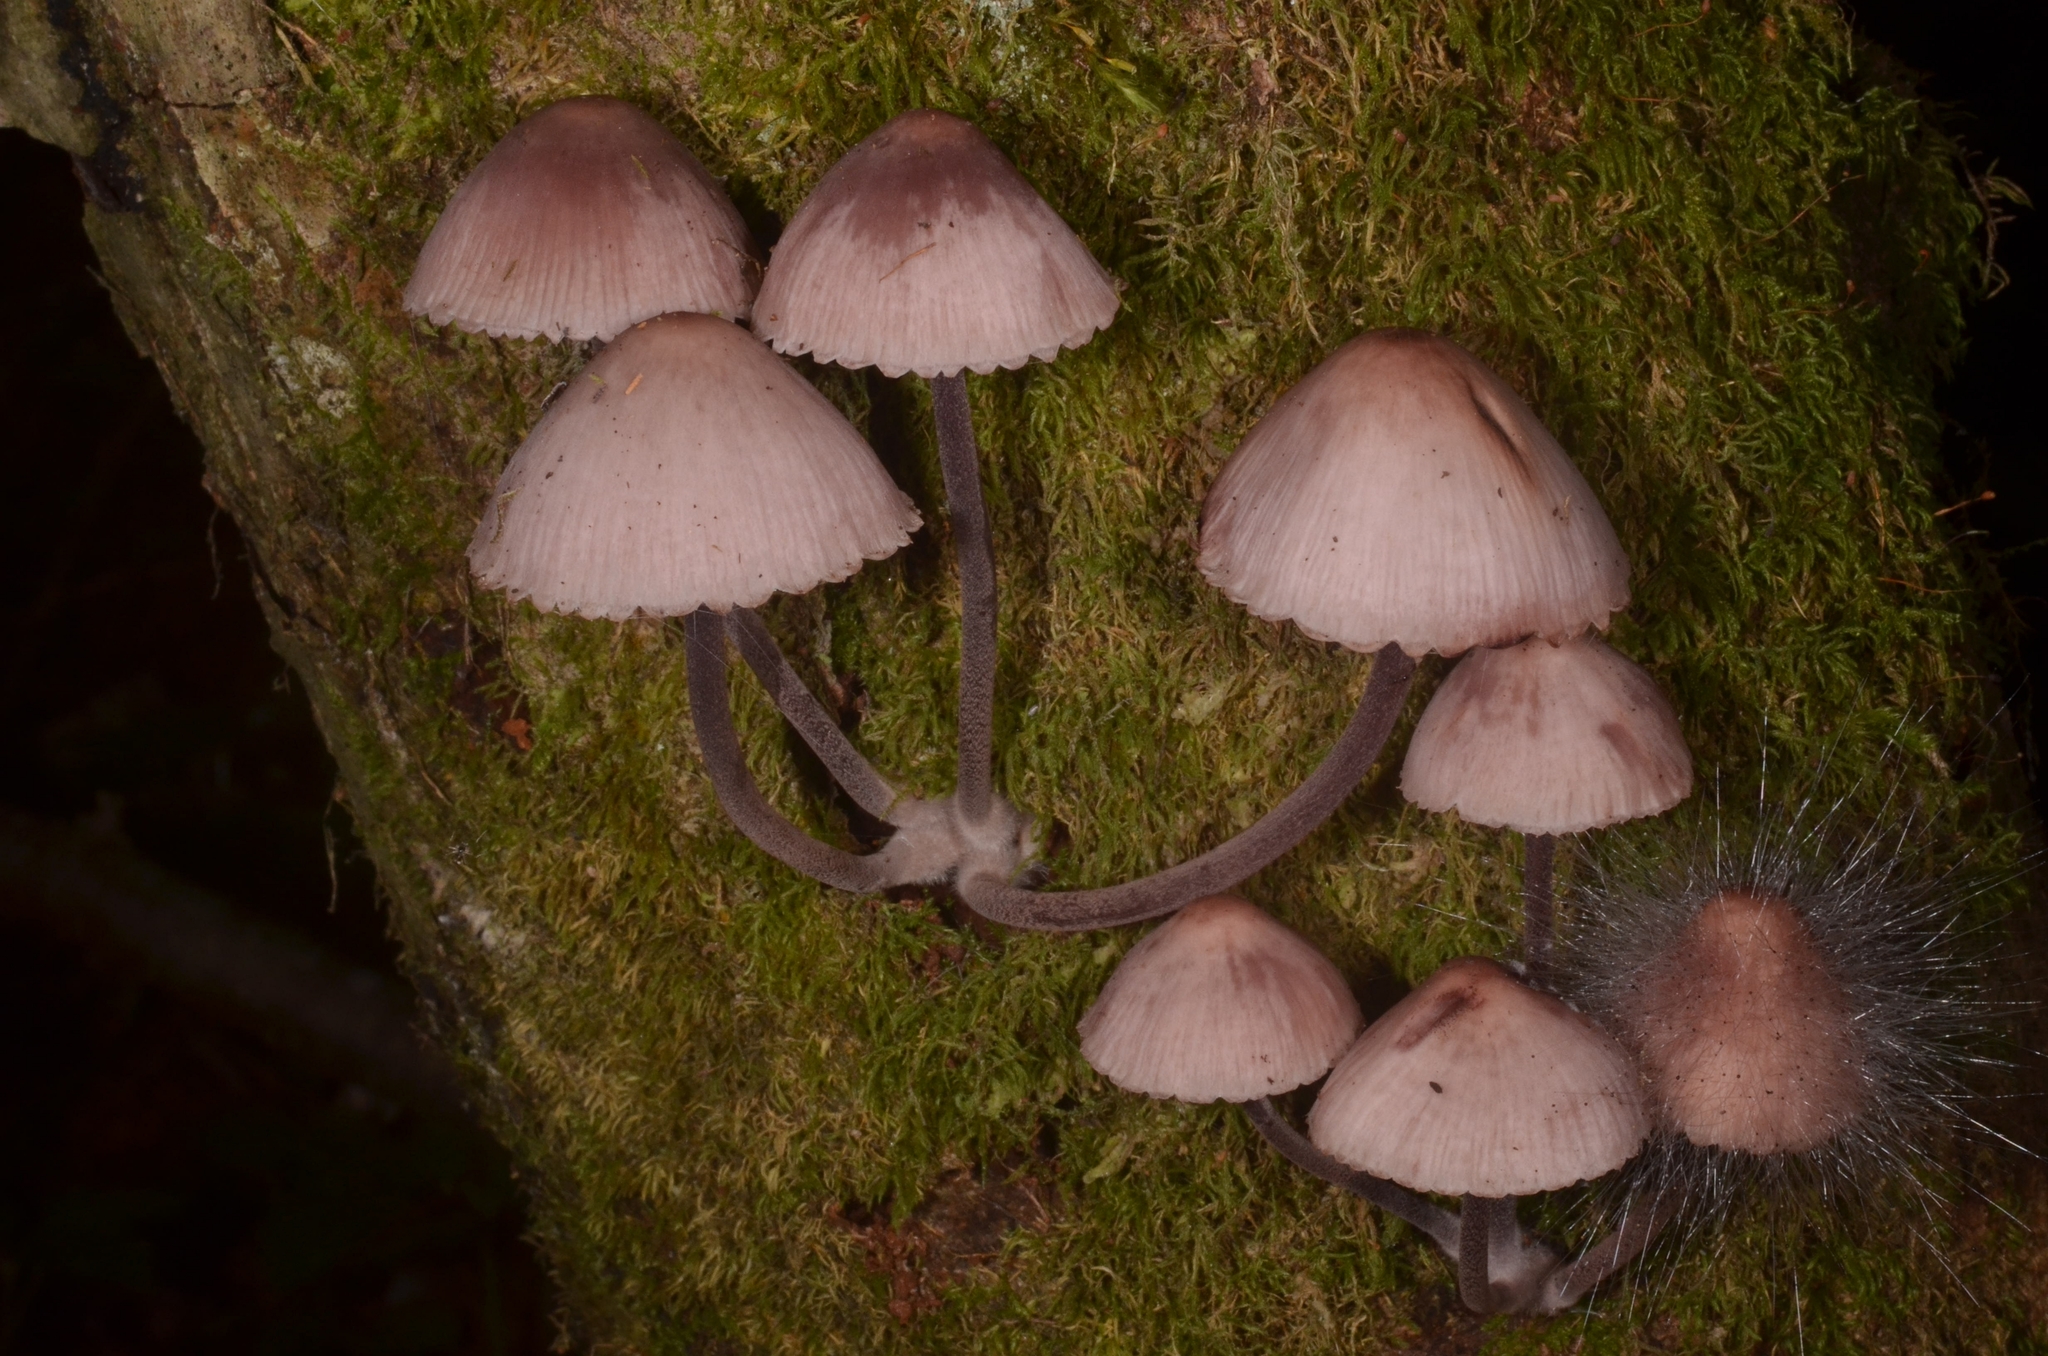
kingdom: Fungi
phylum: Basidiomycota
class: Agaricomycetes
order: Agaricales
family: Mycenaceae
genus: Mycena
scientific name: Mycena haematopus
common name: Burgundydrop bonnet
